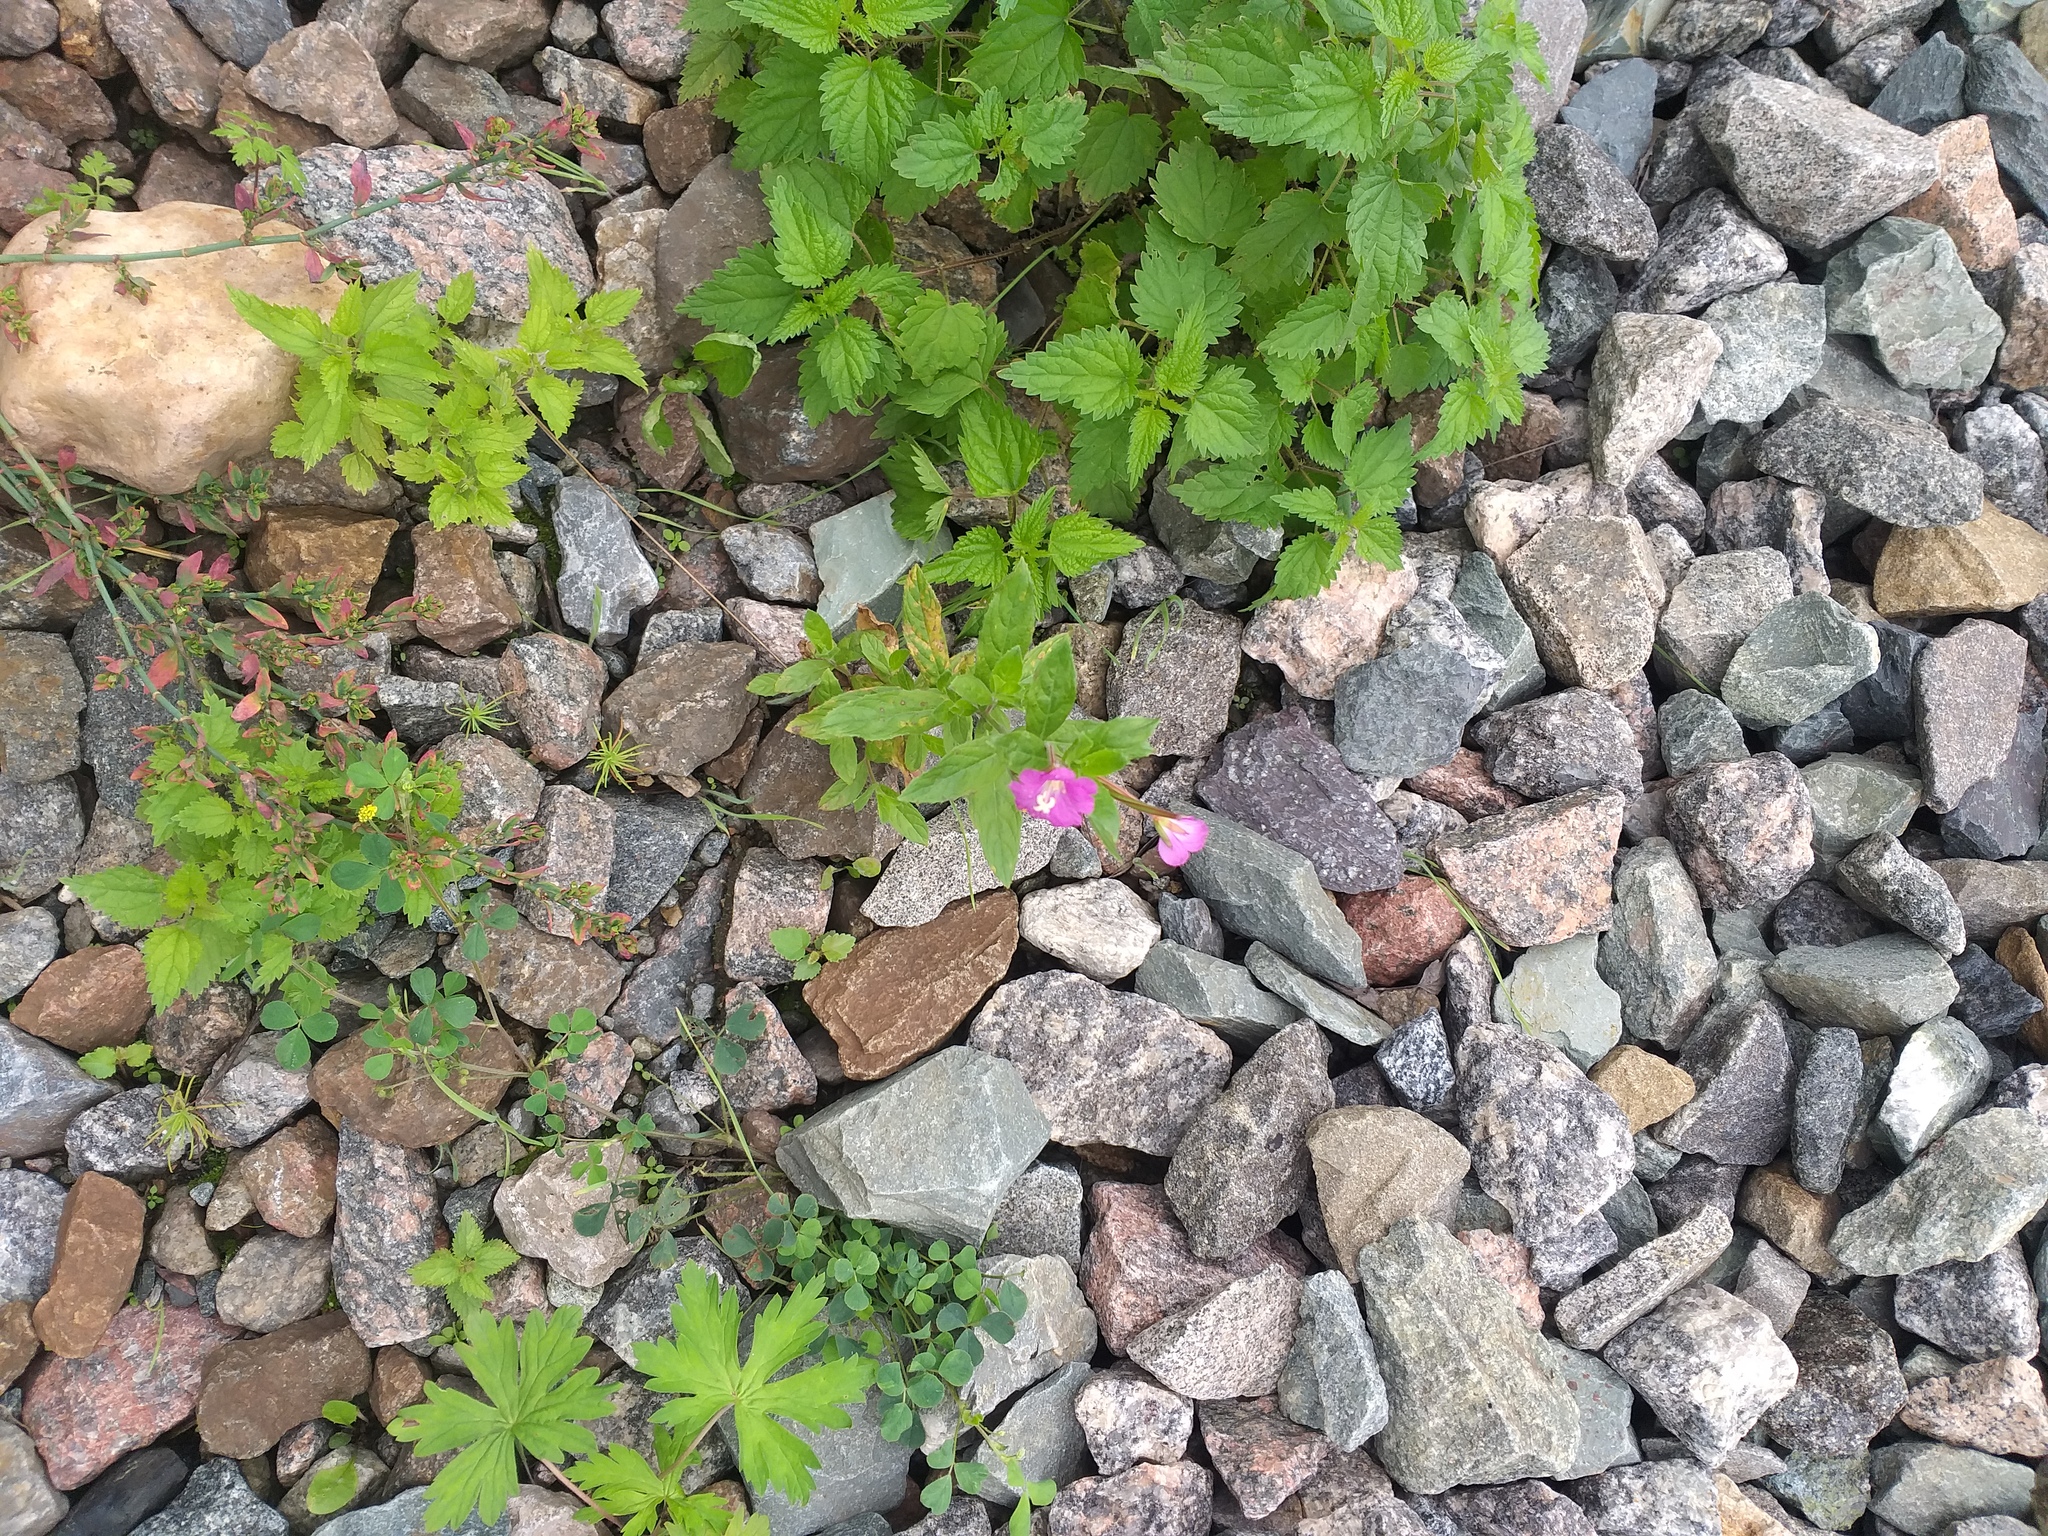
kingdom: Plantae
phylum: Tracheophyta
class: Magnoliopsida
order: Myrtales
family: Onagraceae
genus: Epilobium
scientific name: Epilobium hirsutum
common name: Great willowherb
